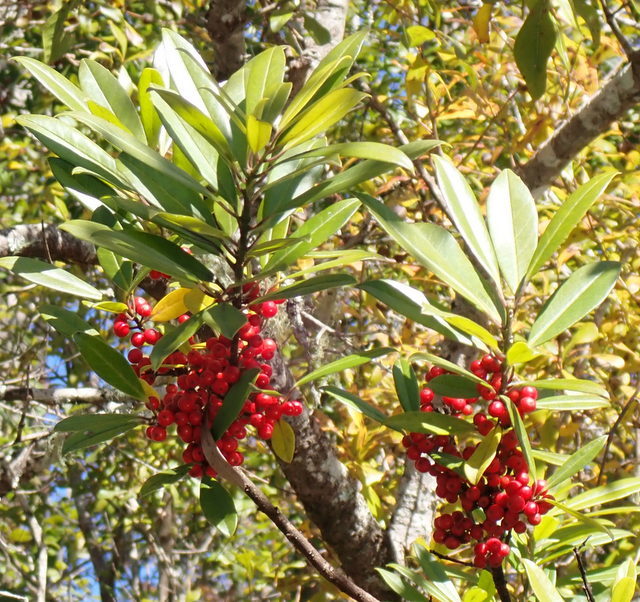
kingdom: Plantae
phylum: Tracheophyta
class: Magnoliopsida
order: Aquifoliales
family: Aquifoliaceae
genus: Ilex
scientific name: Ilex cassine
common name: Dahoon
